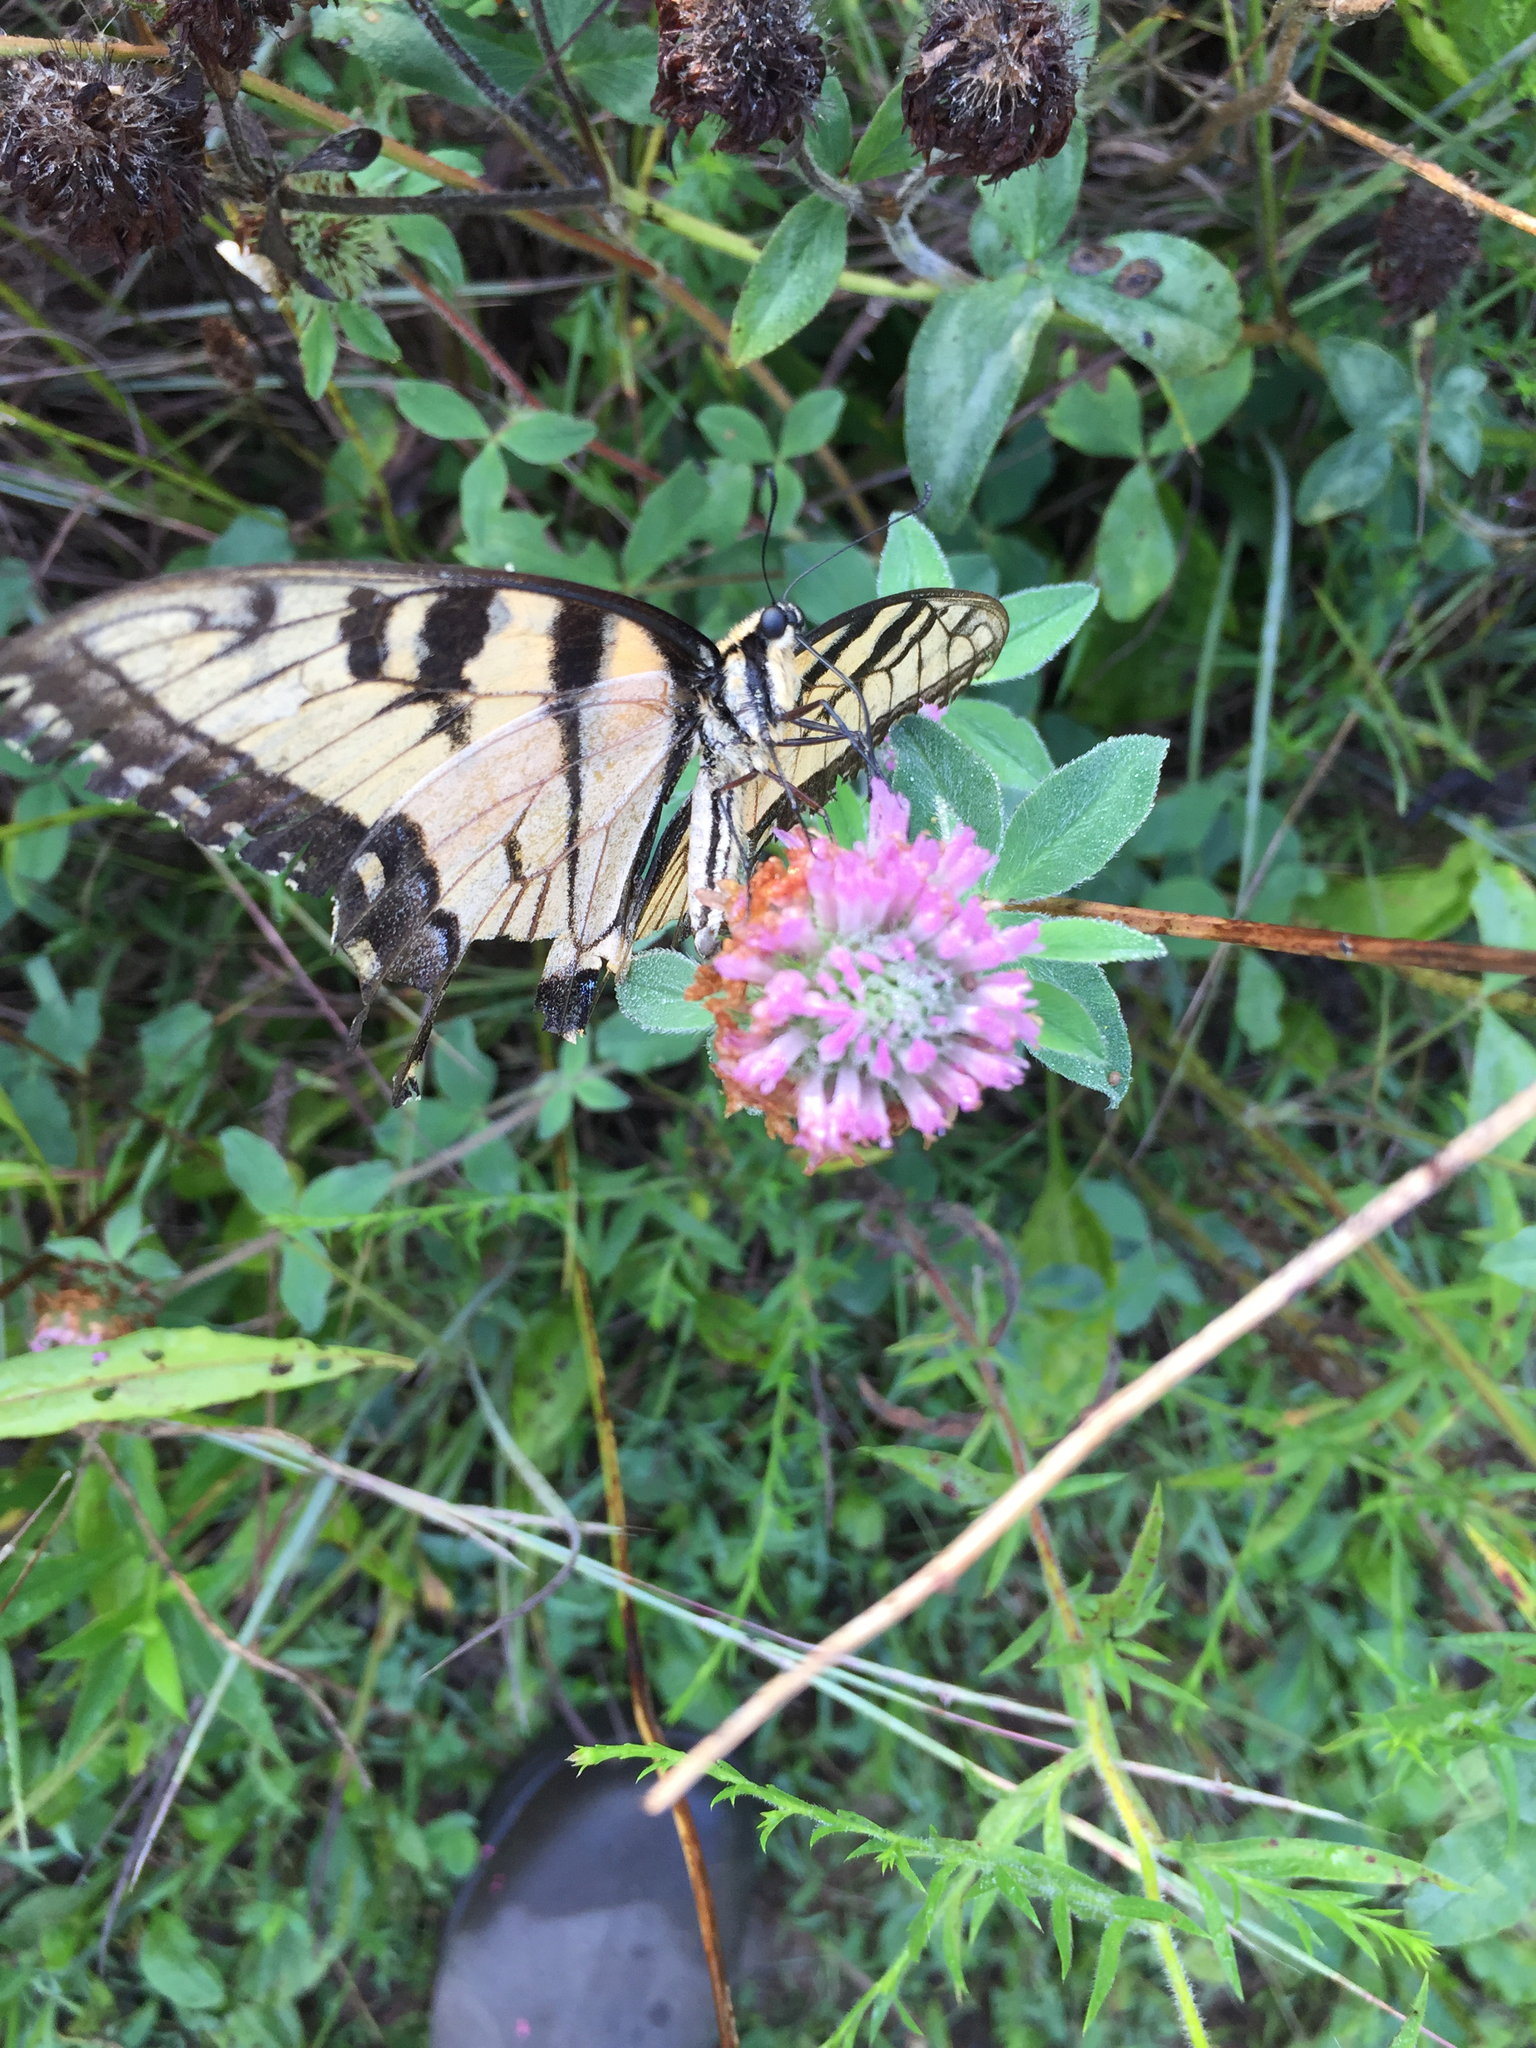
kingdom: Animalia
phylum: Arthropoda
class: Insecta
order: Lepidoptera
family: Papilionidae
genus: Papilio
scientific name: Papilio glaucus
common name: Tiger swallowtail
